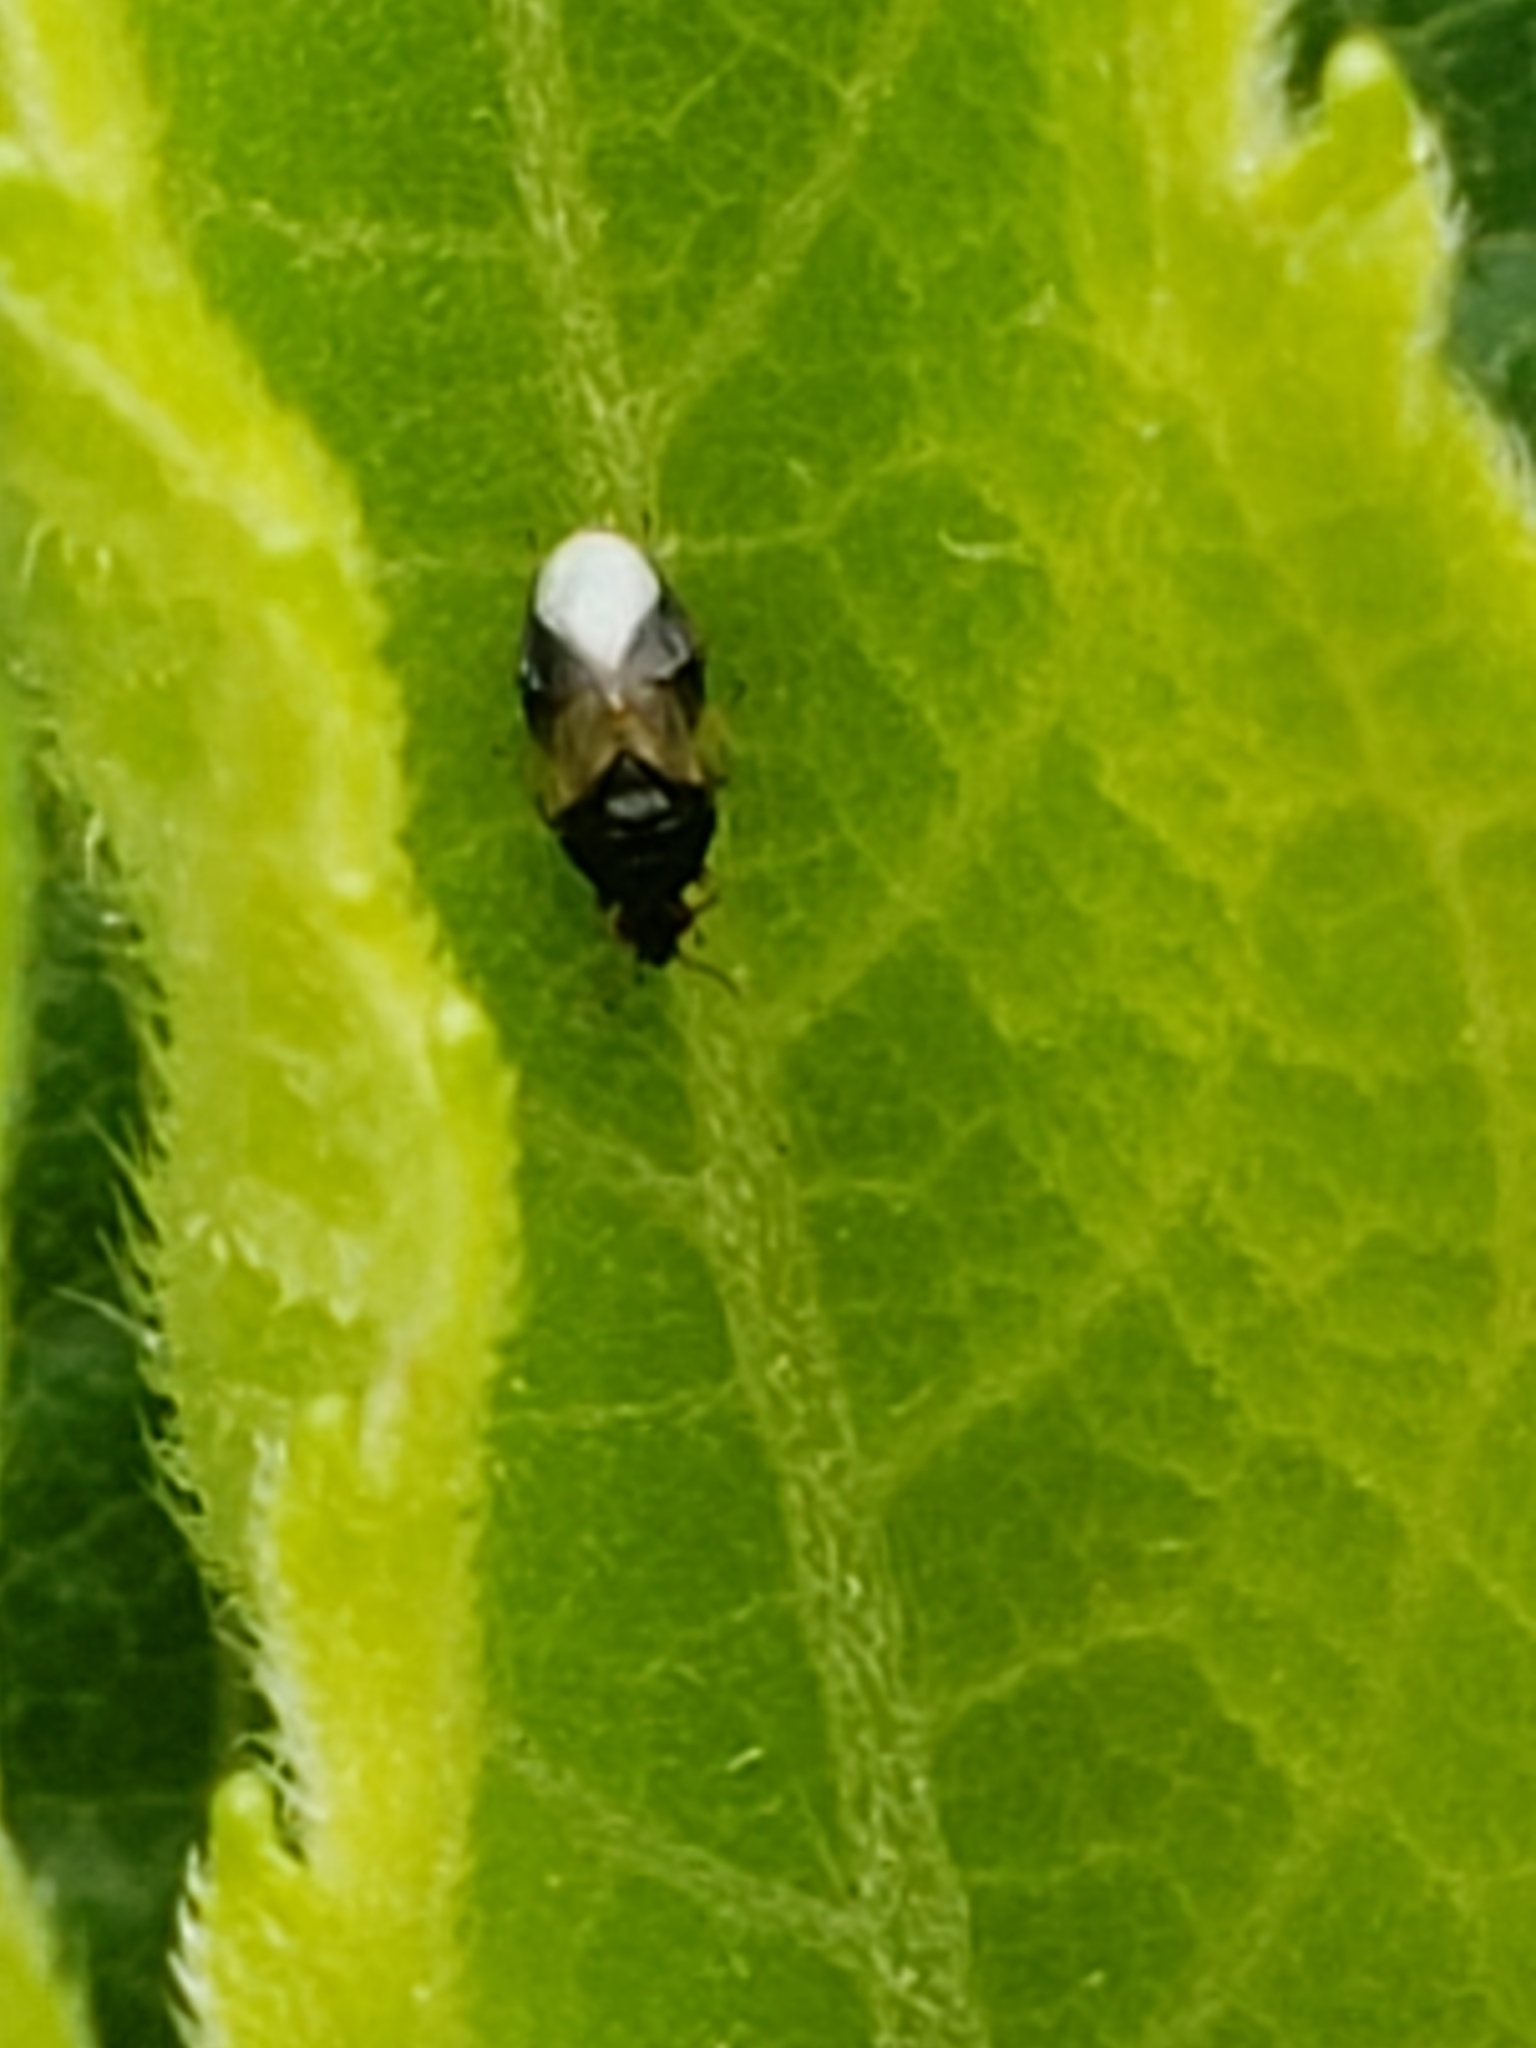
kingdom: Animalia
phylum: Arthropoda
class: Insecta
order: Hemiptera
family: Anthocoridae
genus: Orius
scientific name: Orius insidiosus
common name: Insidious flower bug
